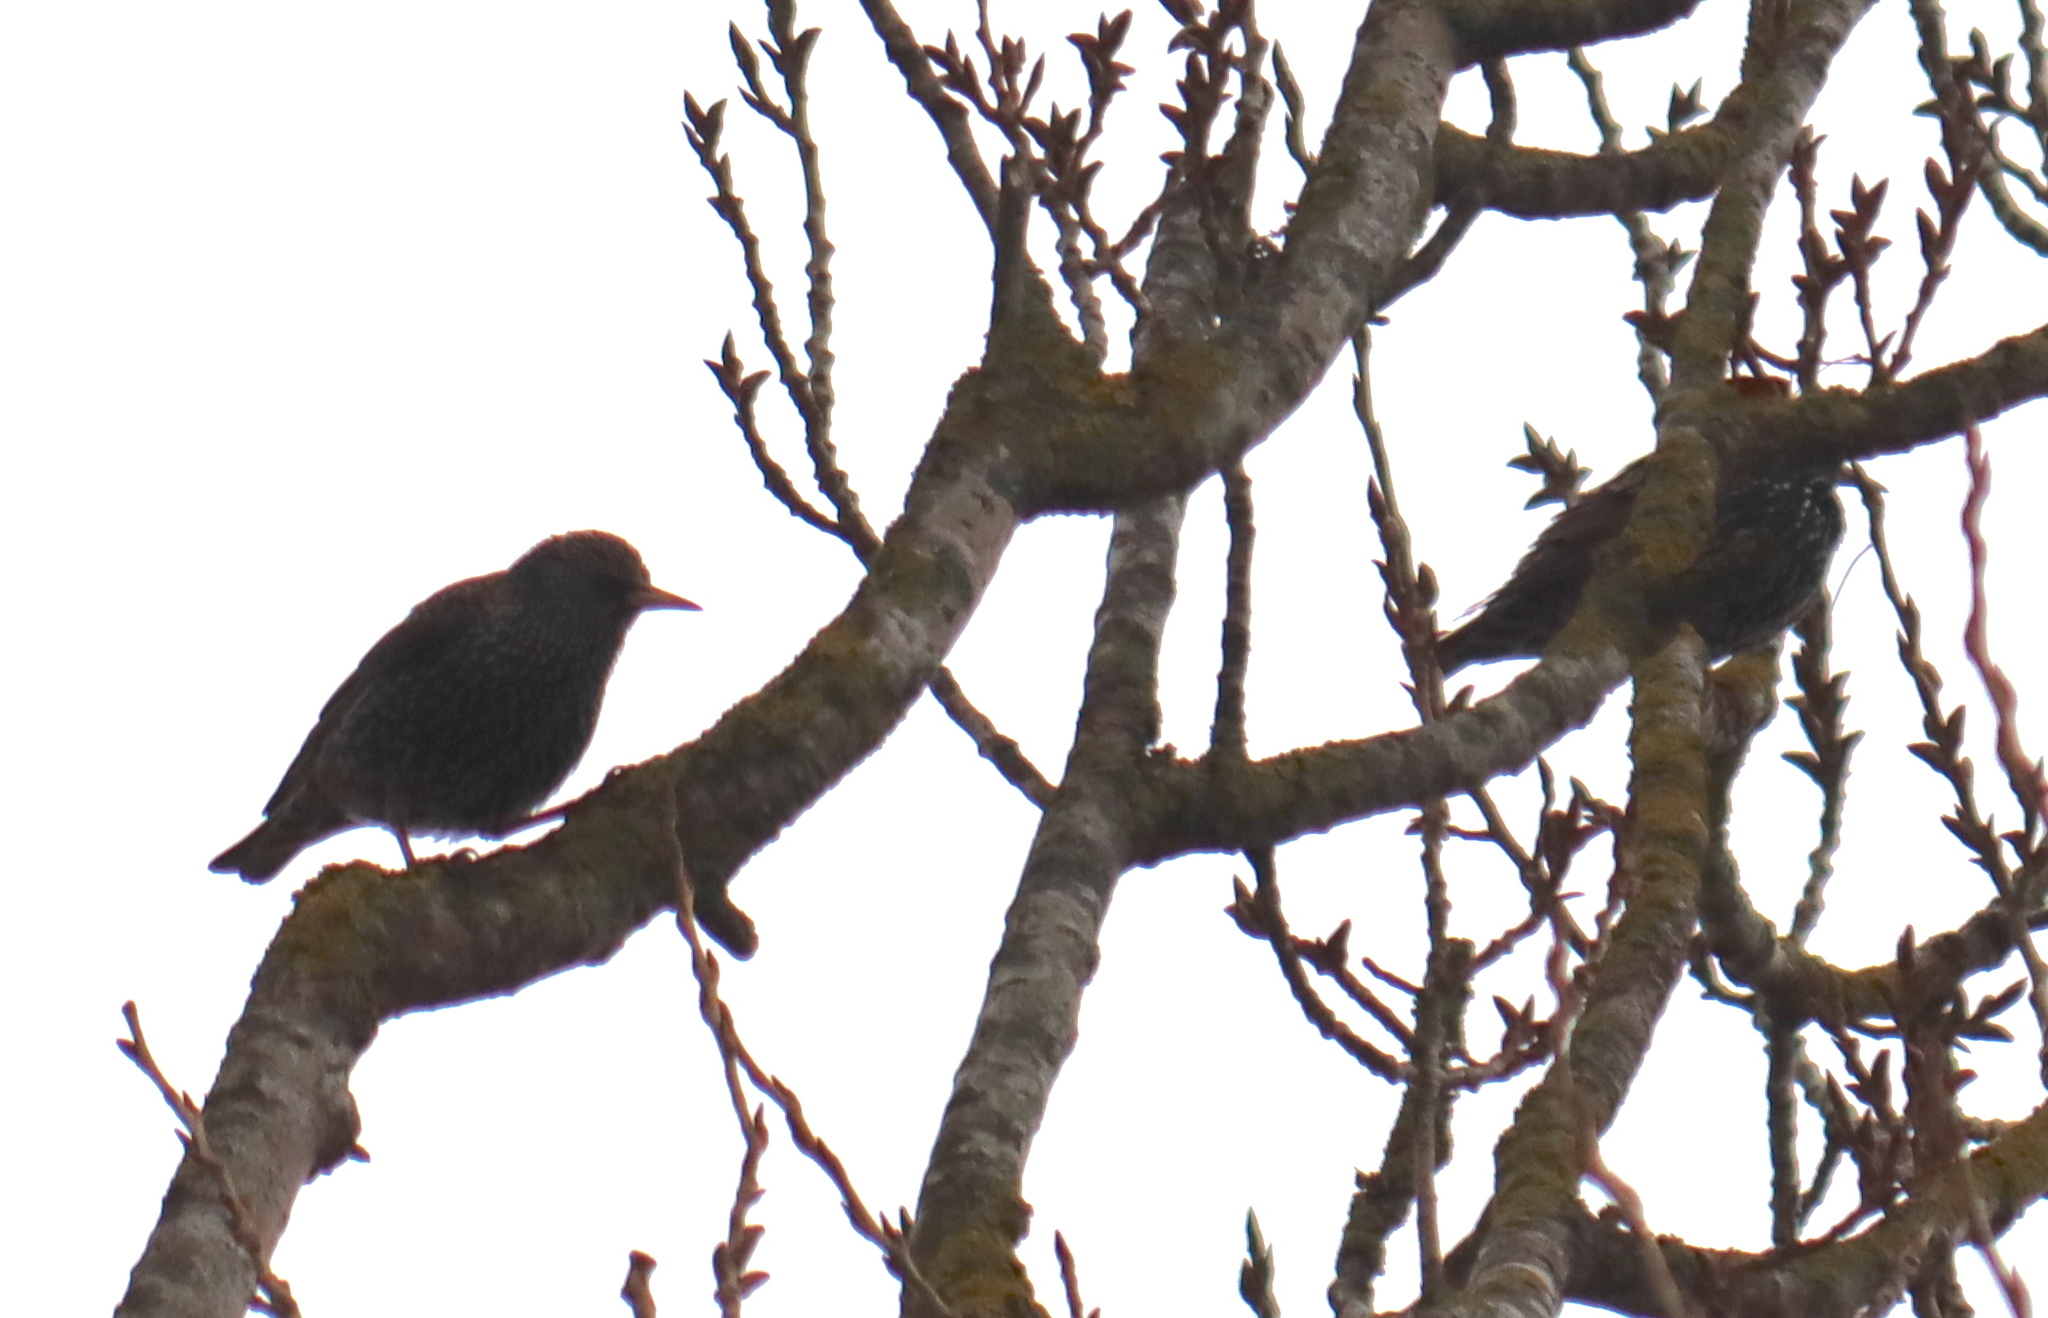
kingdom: Animalia
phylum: Chordata
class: Aves
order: Passeriformes
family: Sturnidae
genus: Sturnus
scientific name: Sturnus vulgaris
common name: Common starling
